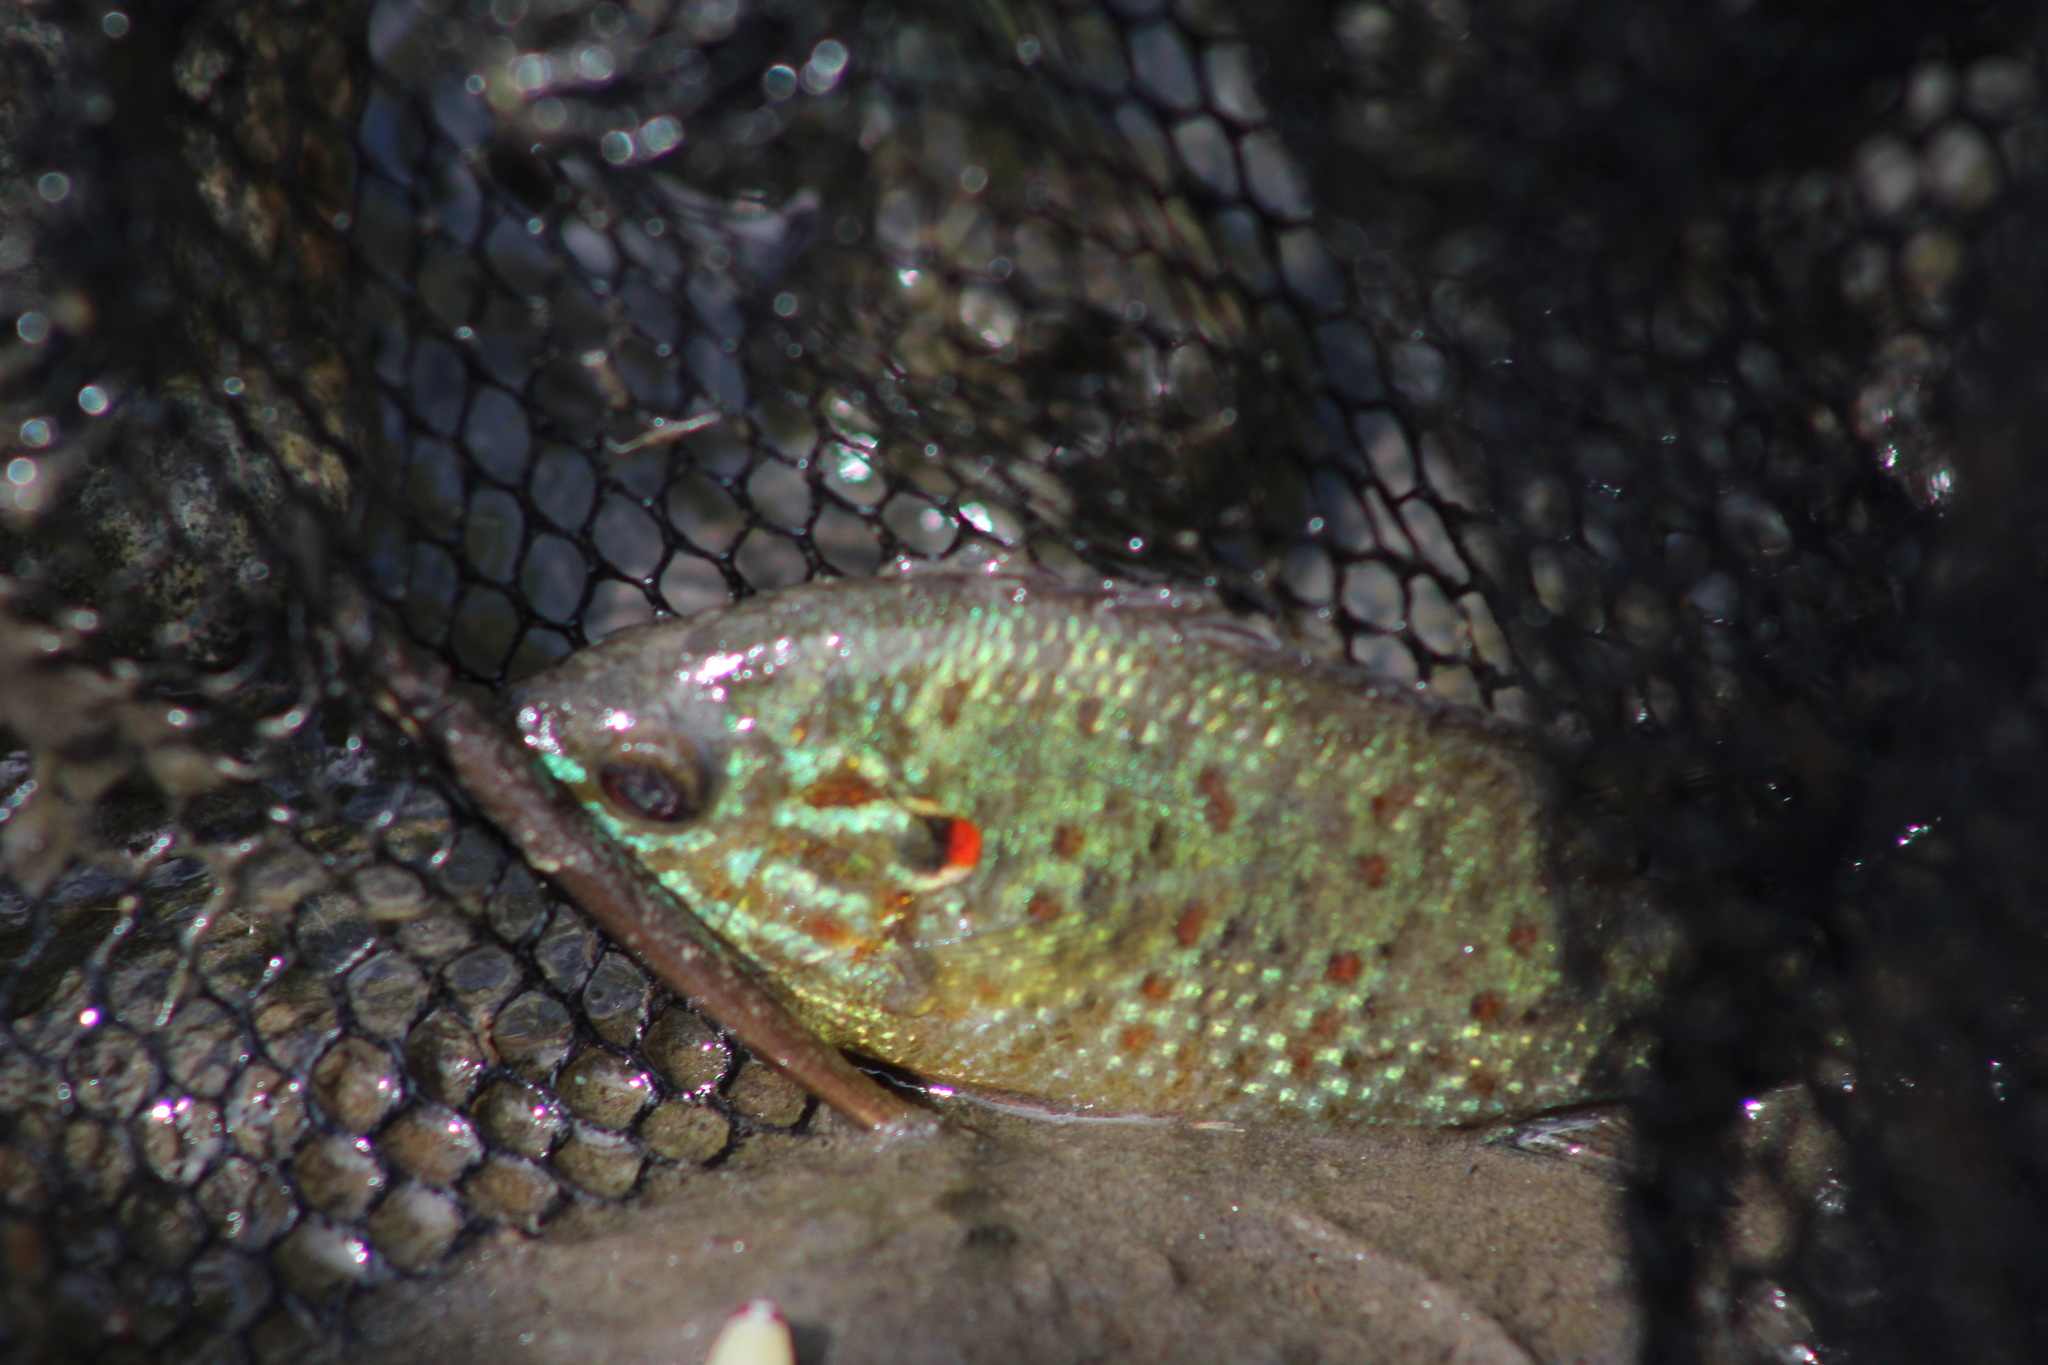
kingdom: Animalia
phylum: Chordata
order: Perciformes
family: Centrarchidae
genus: Lepomis
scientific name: Lepomis gibbosus
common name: Pumpkinseed
